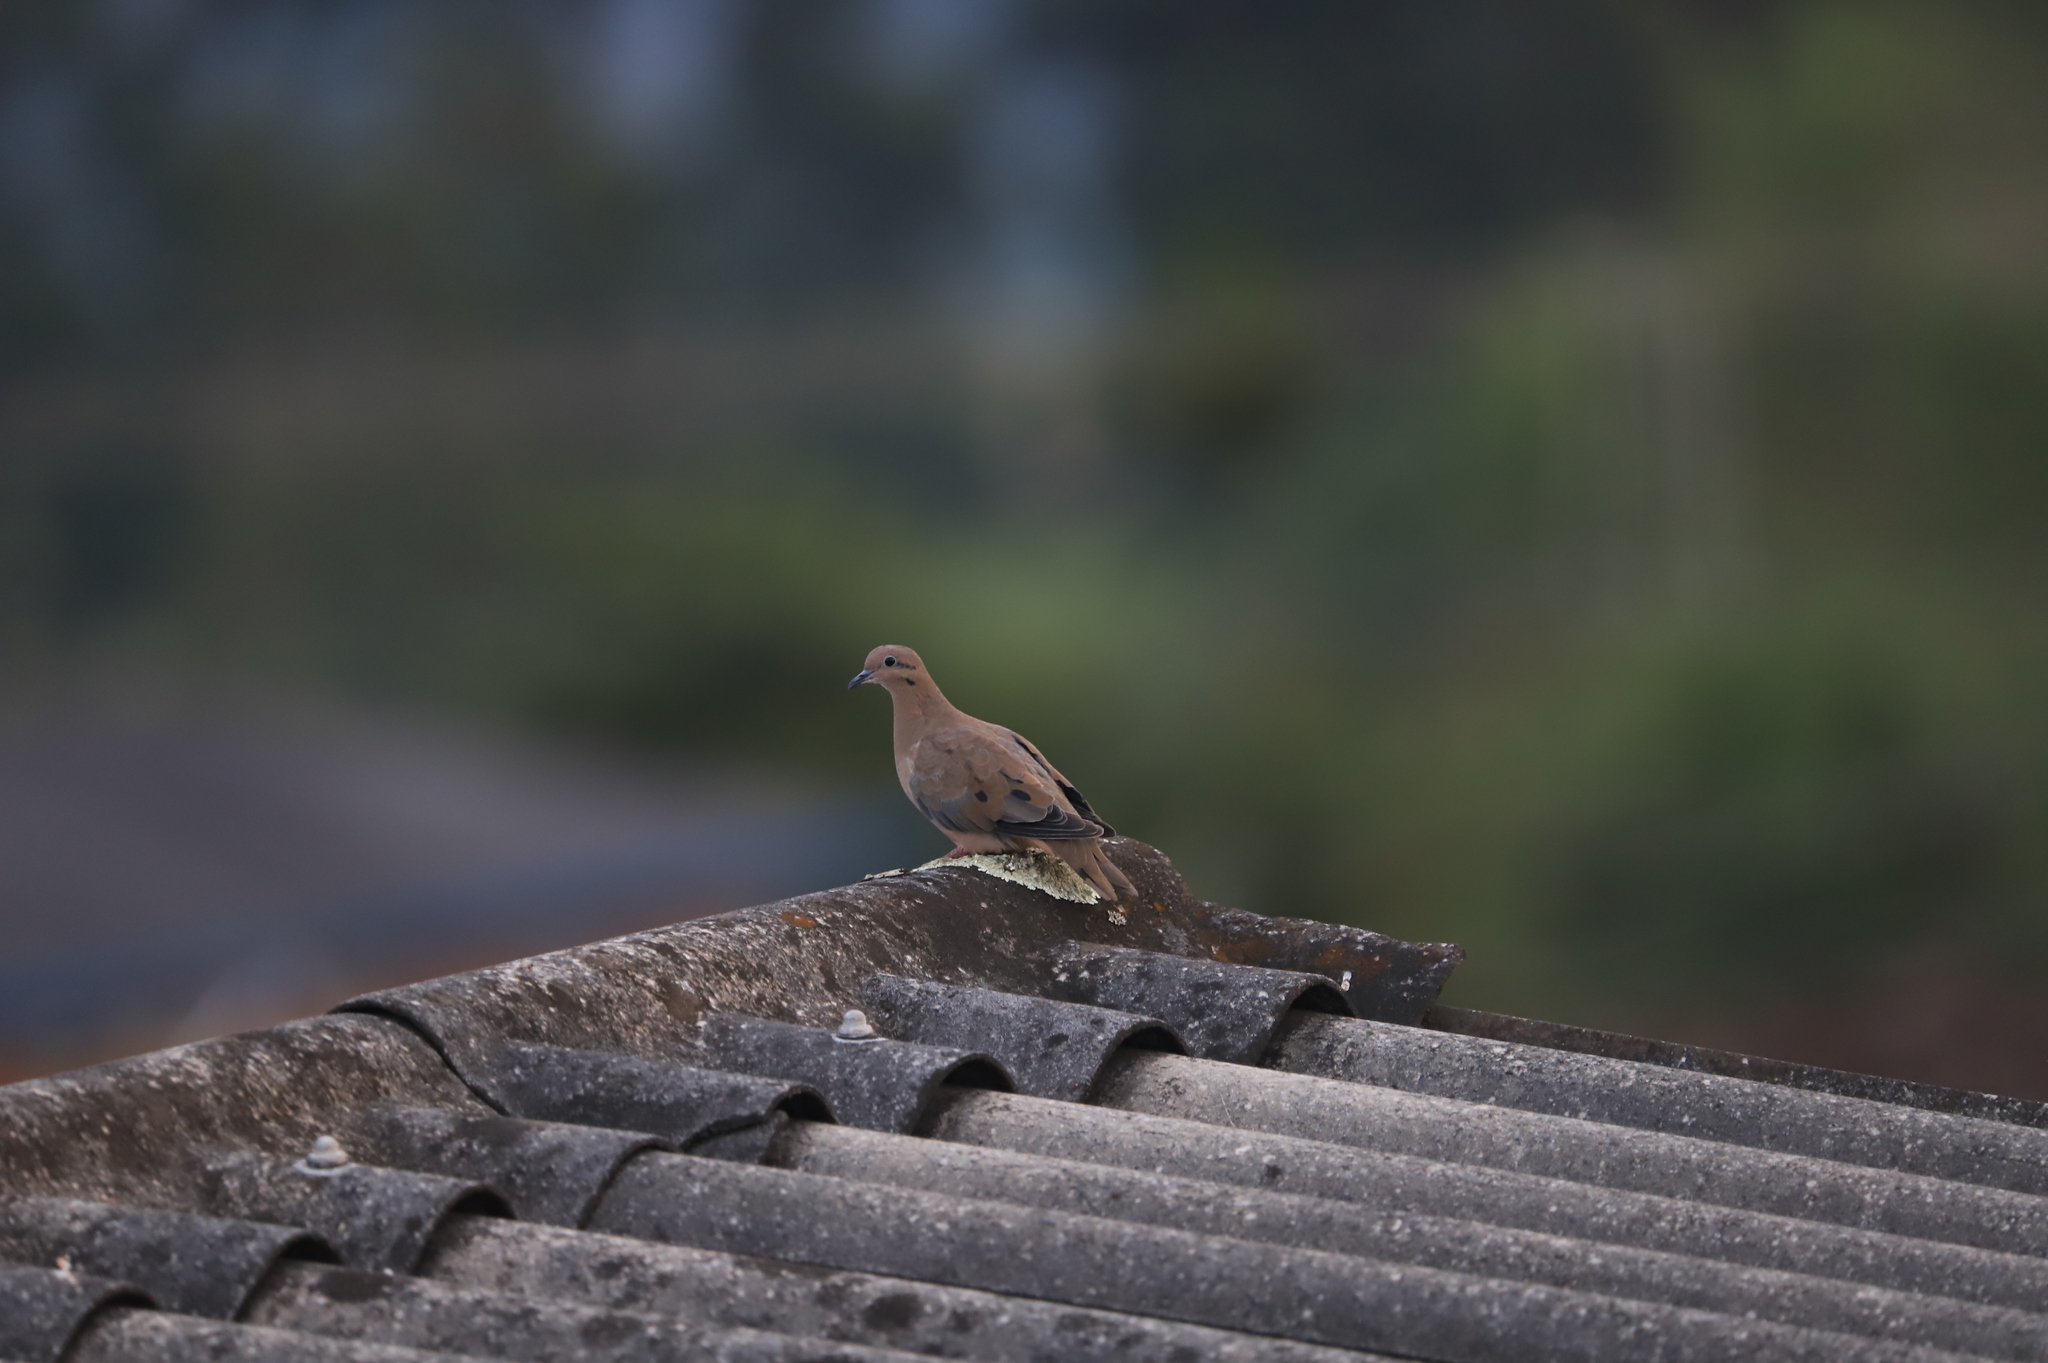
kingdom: Animalia
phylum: Chordata
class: Aves
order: Columbiformes
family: Columbidae
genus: Zenaida
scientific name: Zenaida auriculata
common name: Eared dove
